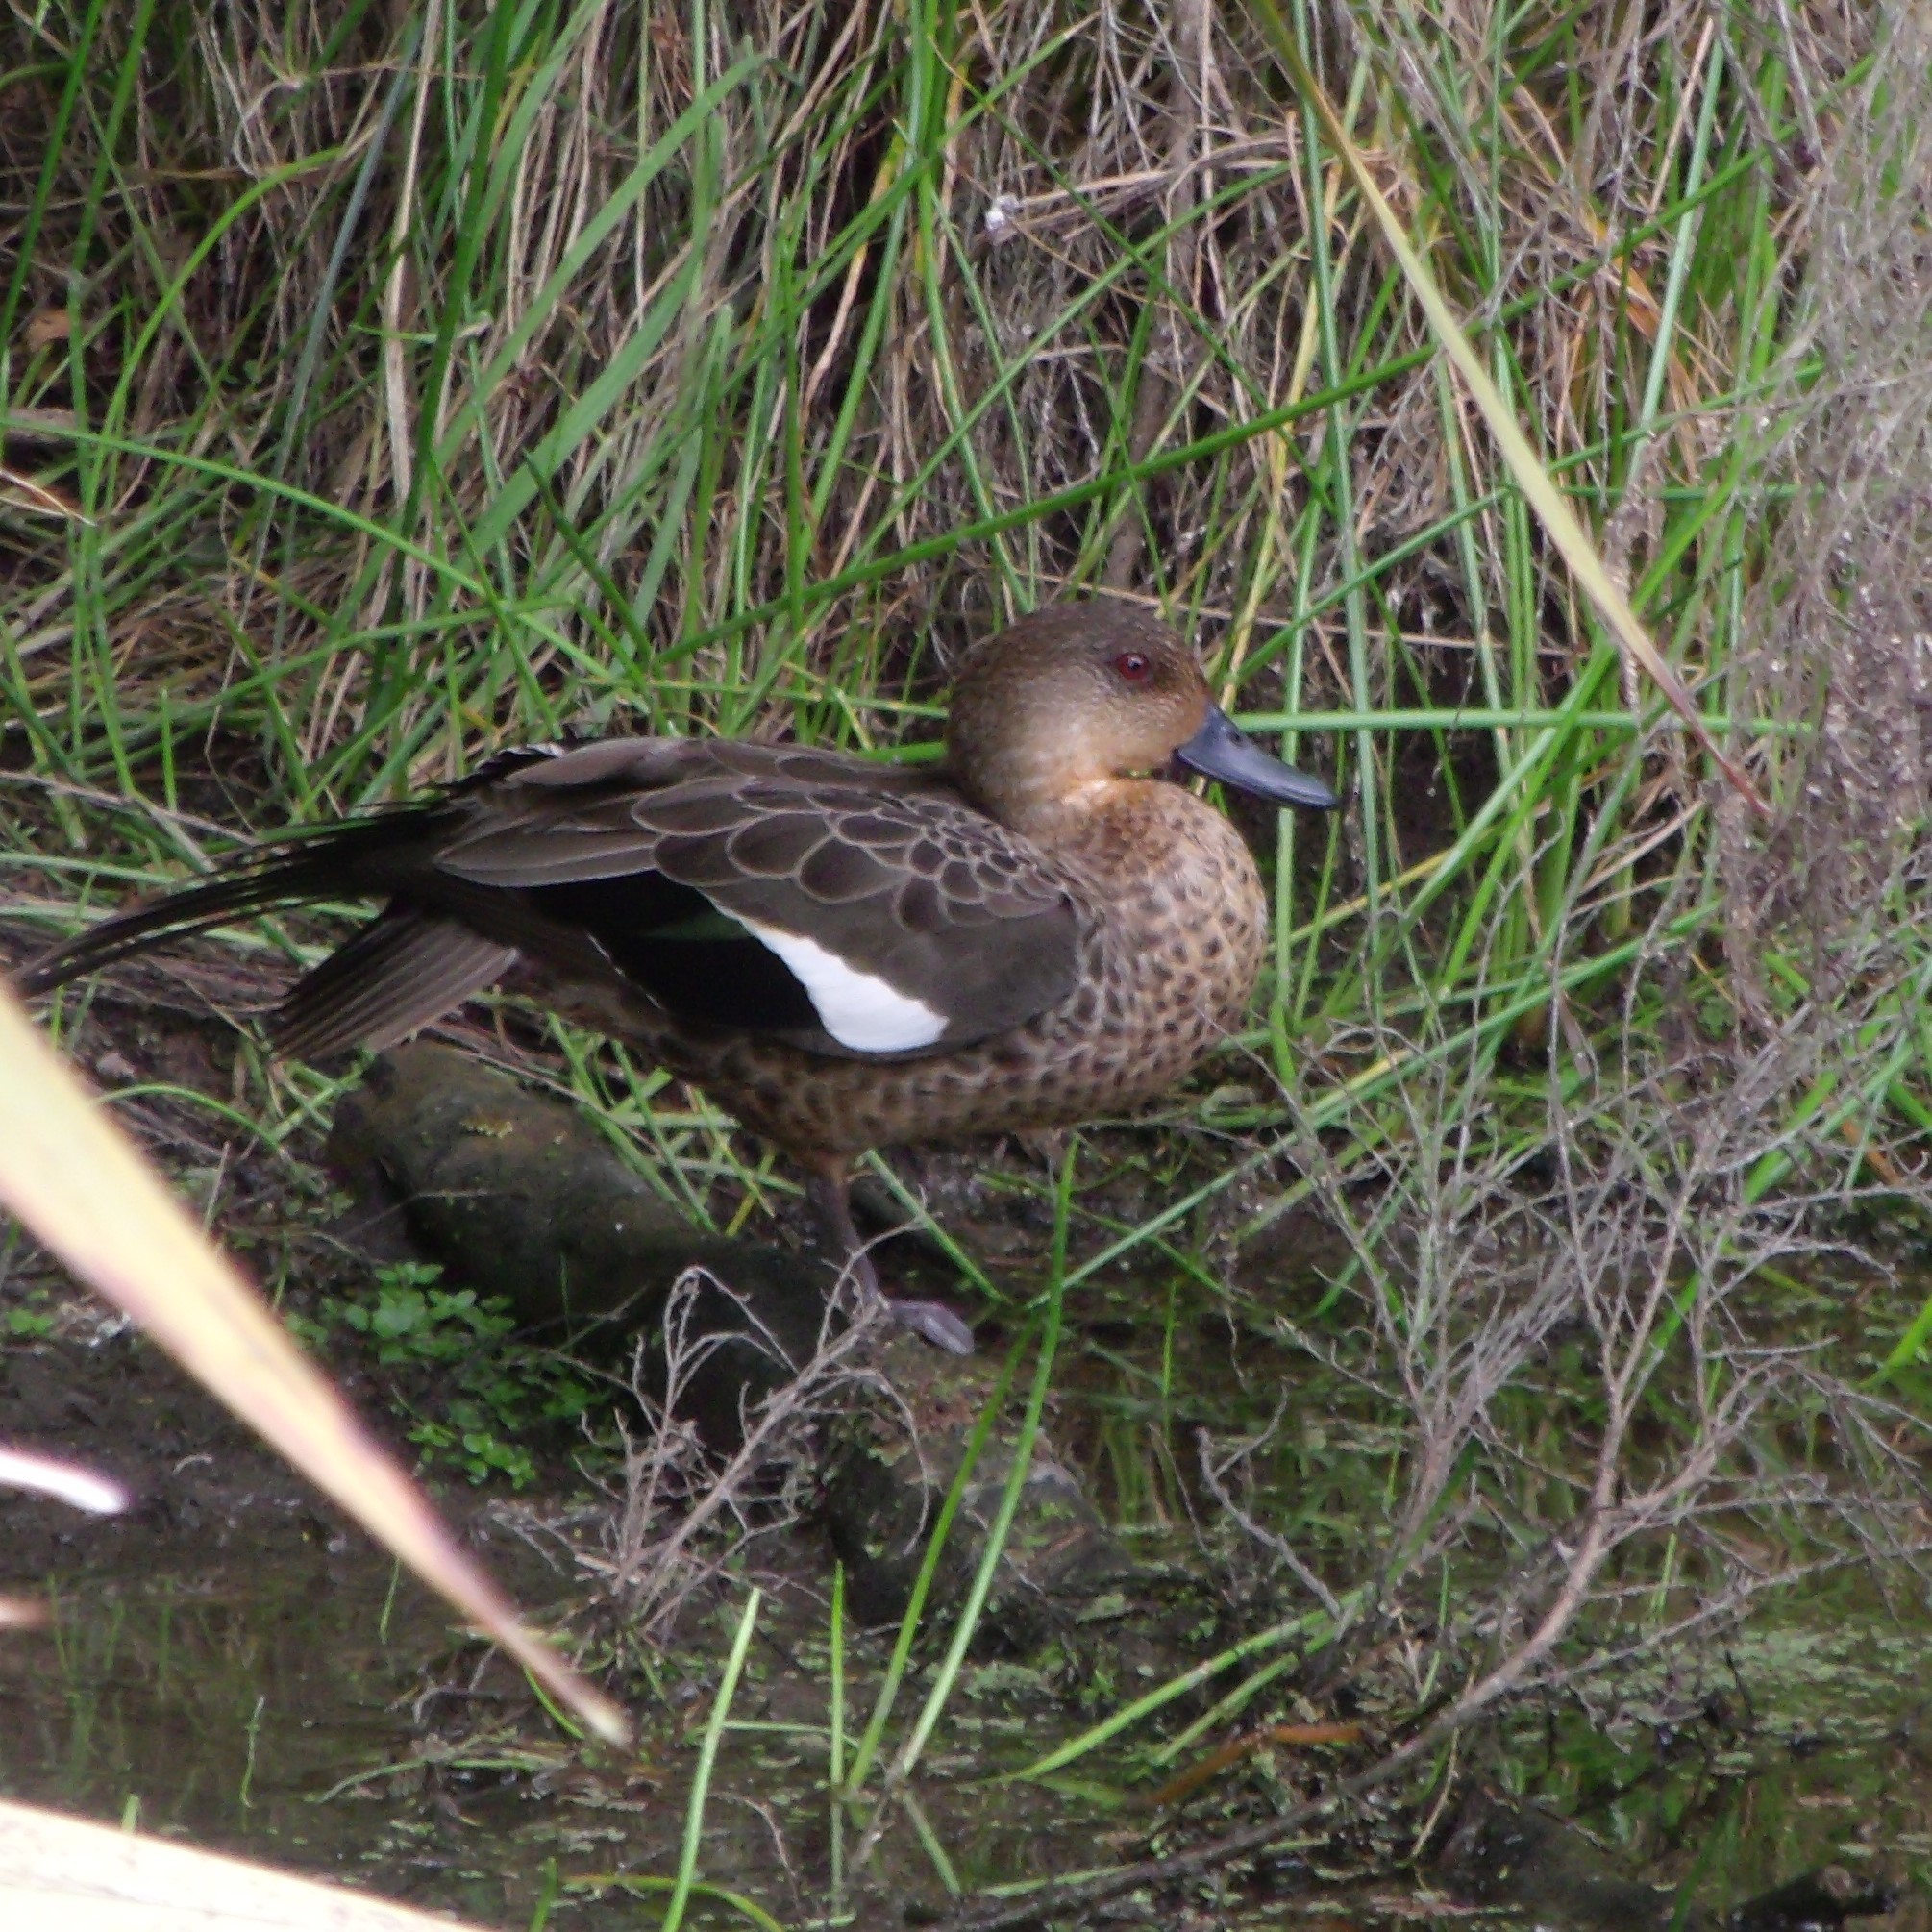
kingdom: Animalia
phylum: Chordata
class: Aves
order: Anseriformes
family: Anatidae
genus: Anas
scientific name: Anas gracilis
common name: Grey teal
